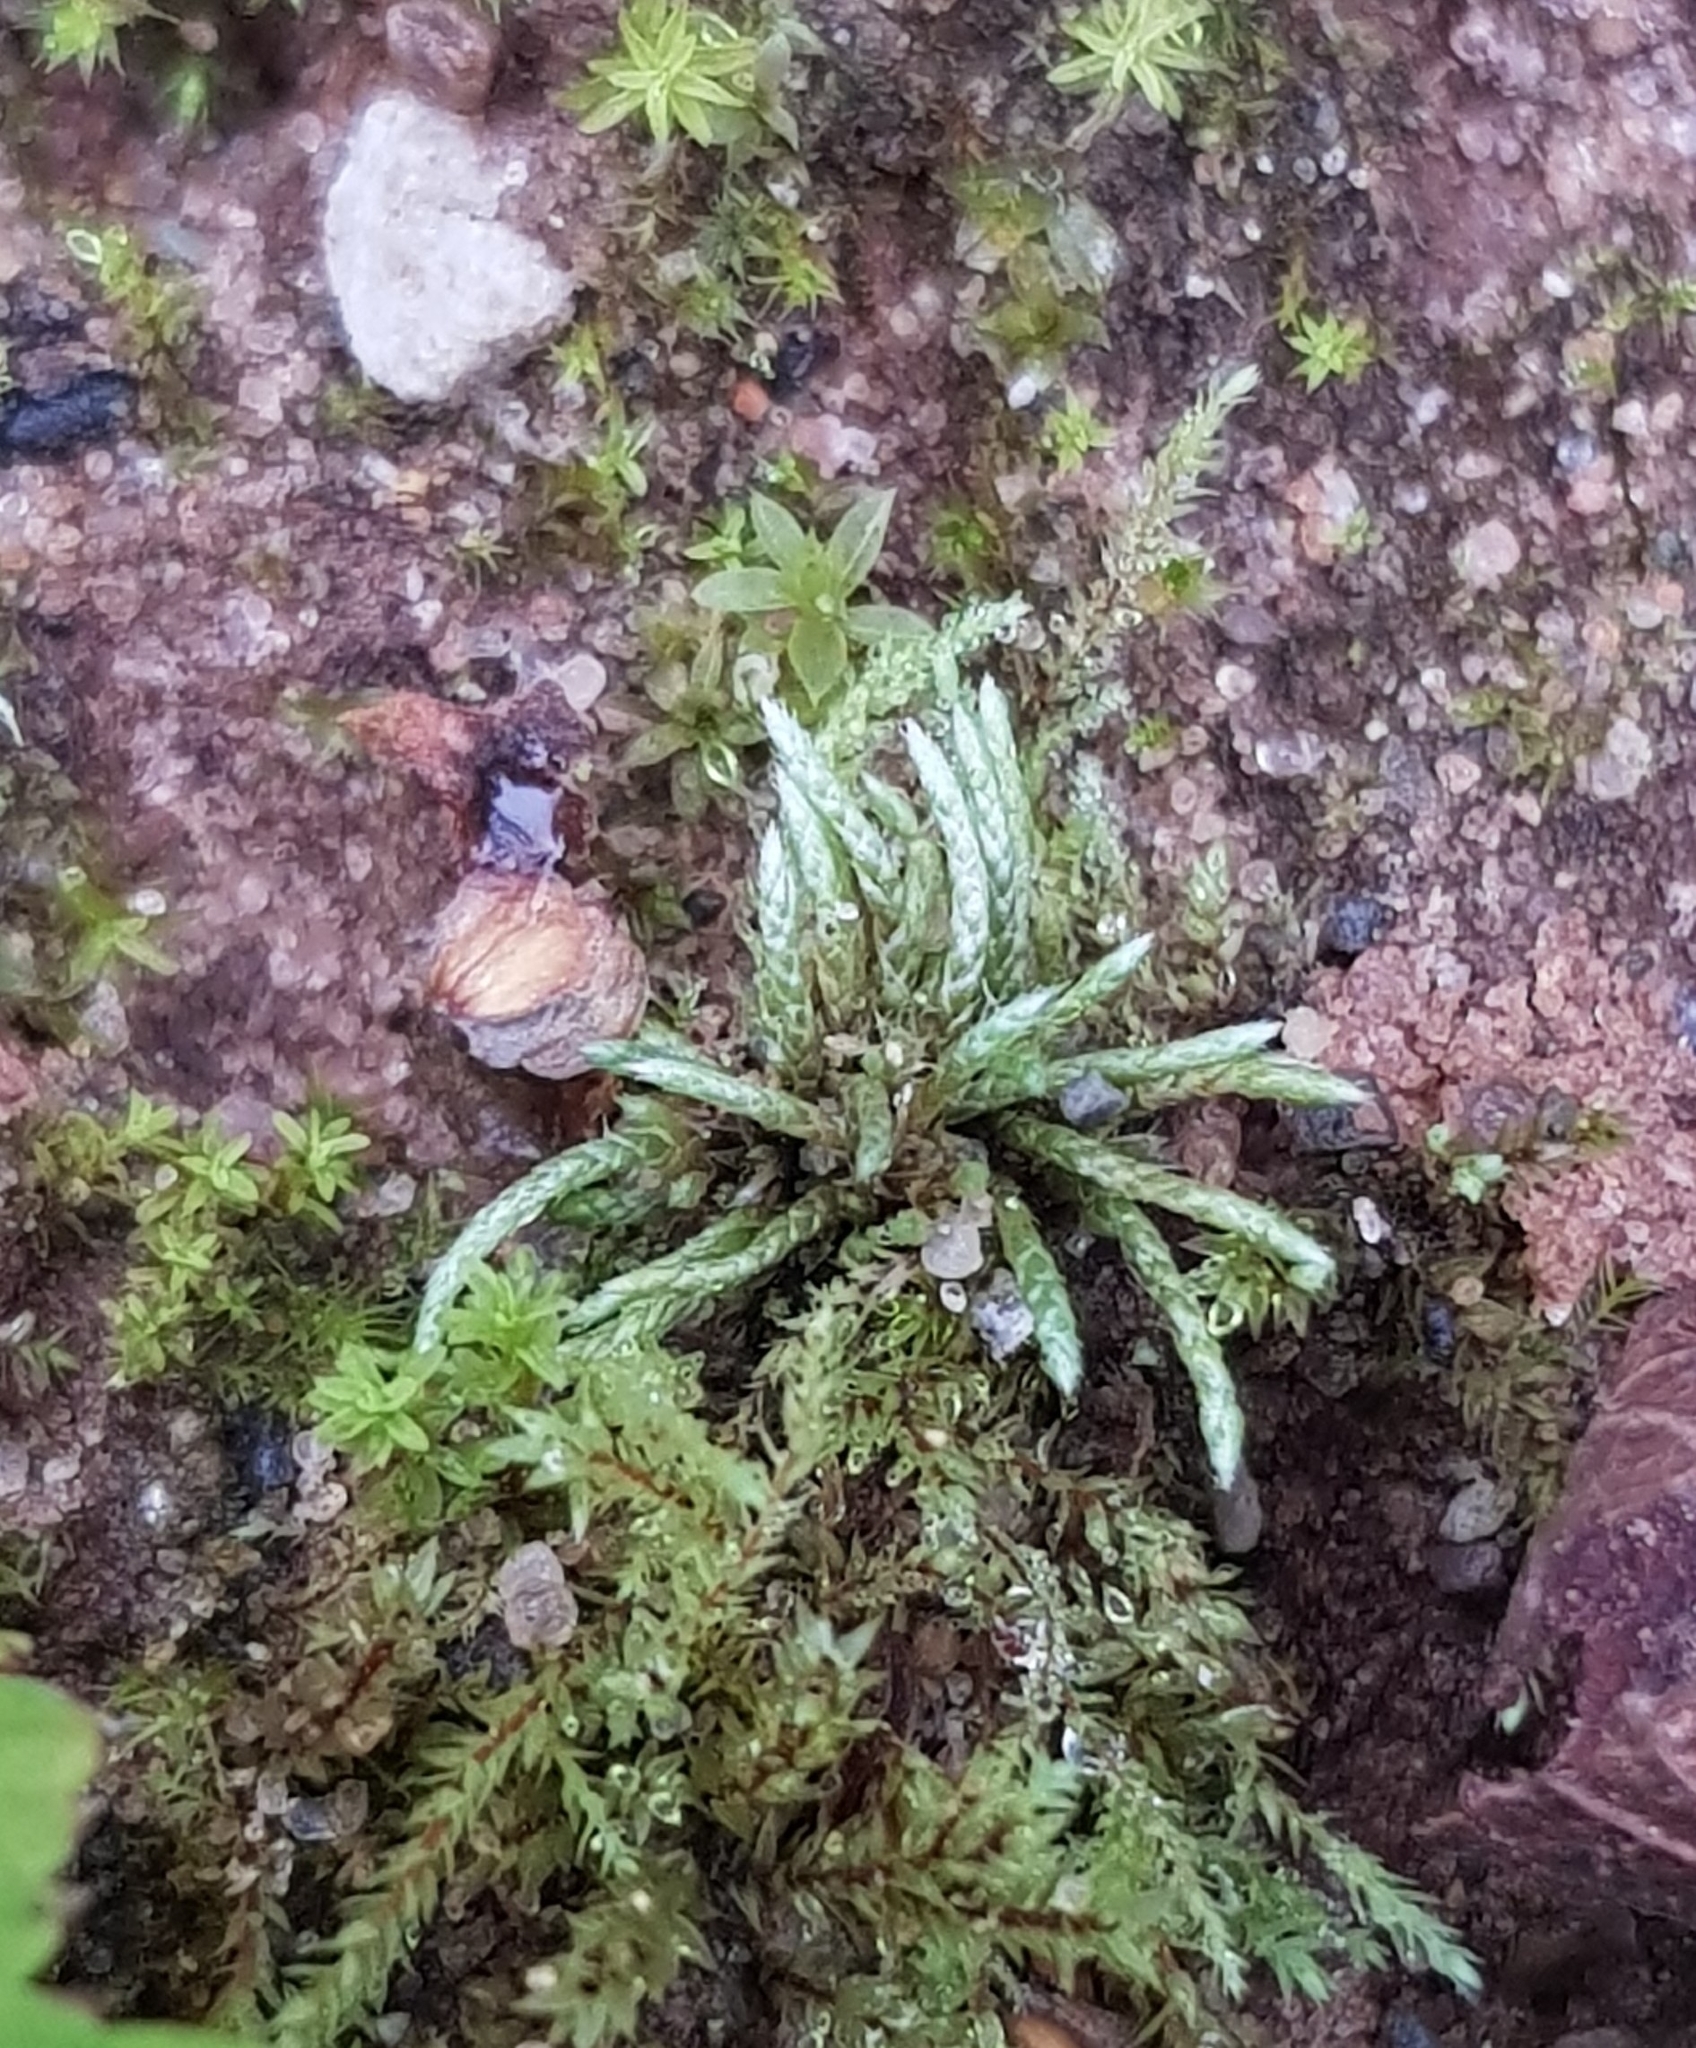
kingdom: Plantae
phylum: Bryophyta
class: Bryopsida
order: Bryales
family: Bryaceae
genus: Bryum
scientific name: Bryum argenteum
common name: Silver-moss
